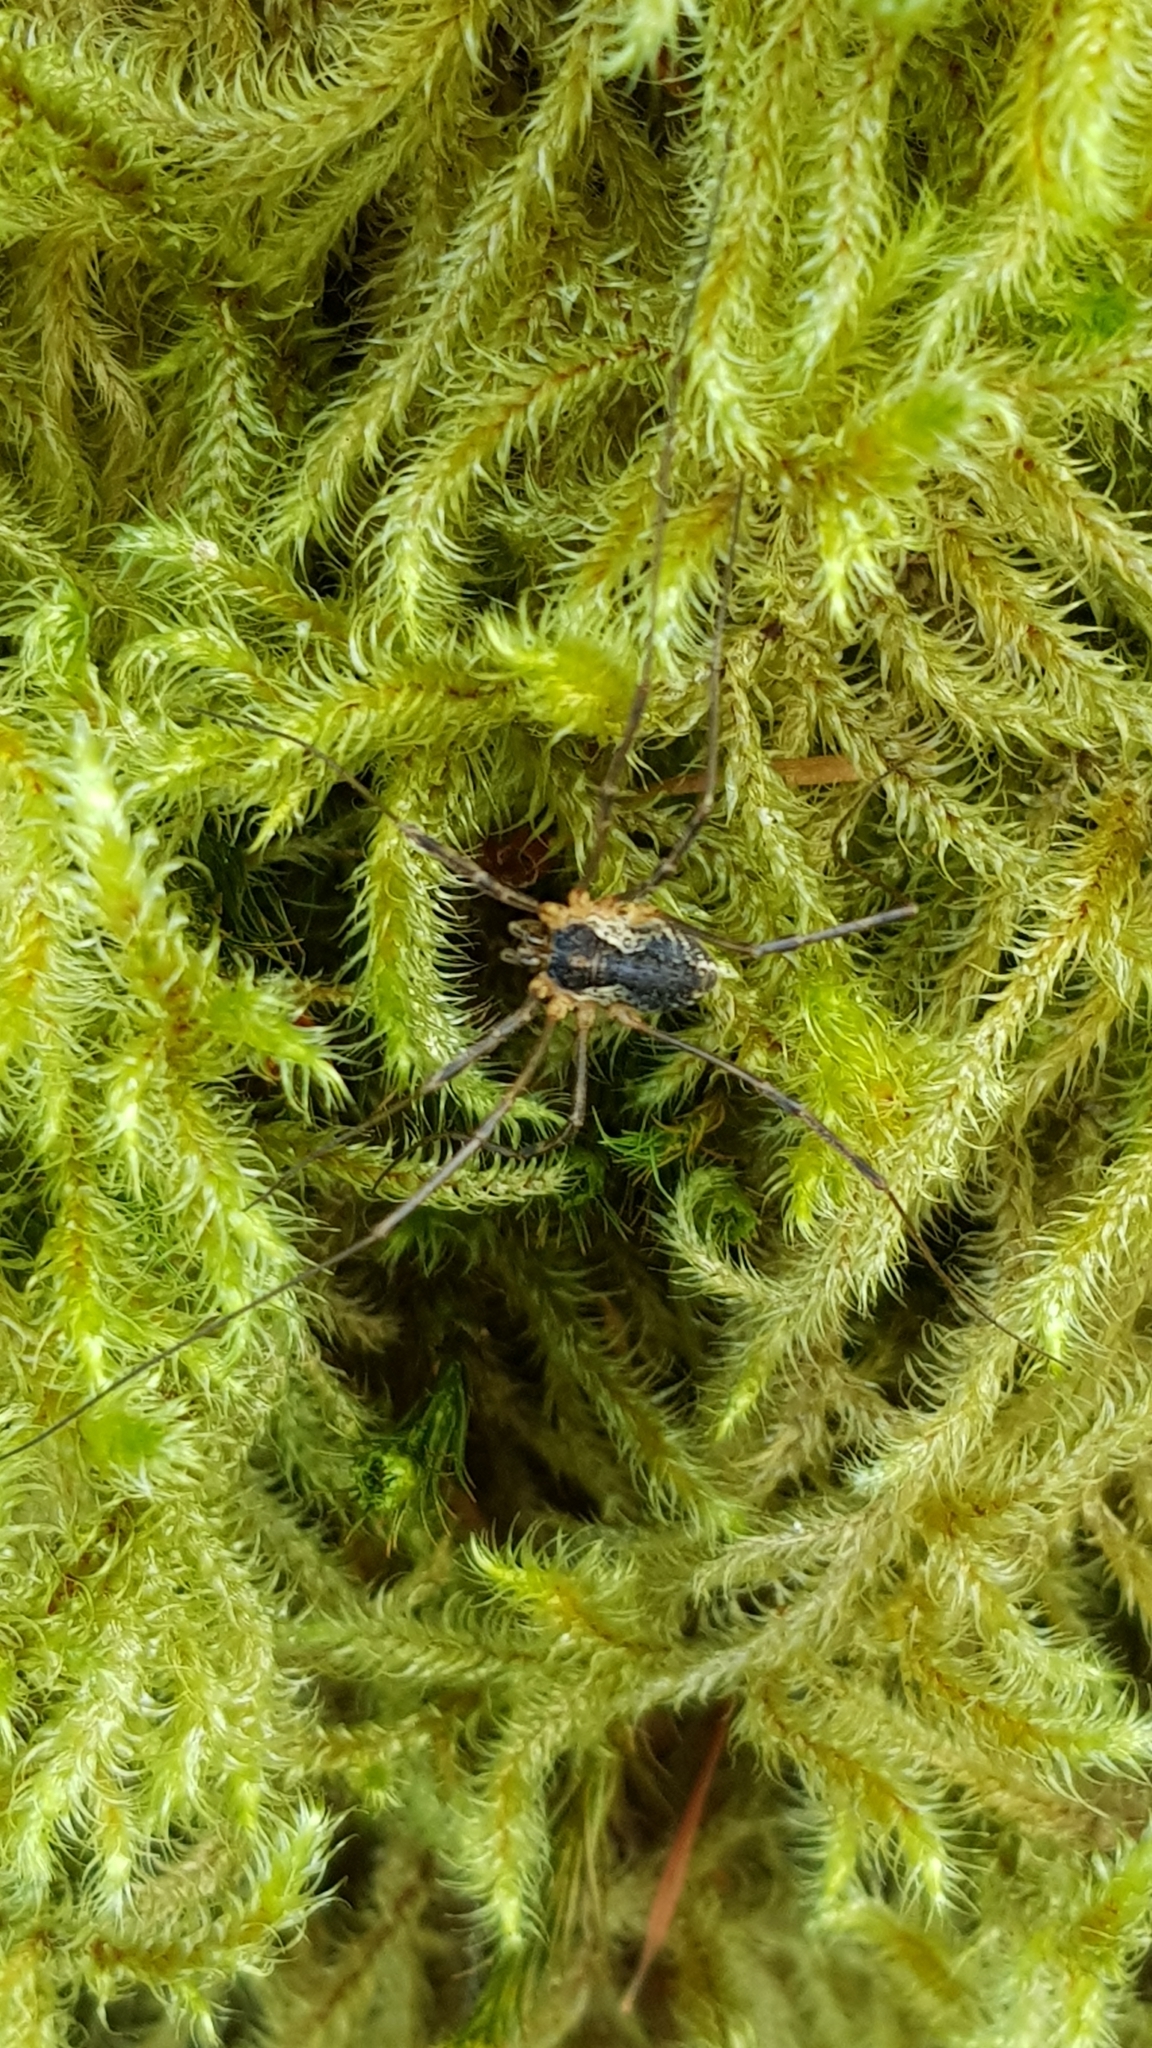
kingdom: Animalia
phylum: Arthropoda
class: Arachnida
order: Opiliones
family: Phalangiidae
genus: Mitopus
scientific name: Mitopus morio
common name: Saddleback harvestman
